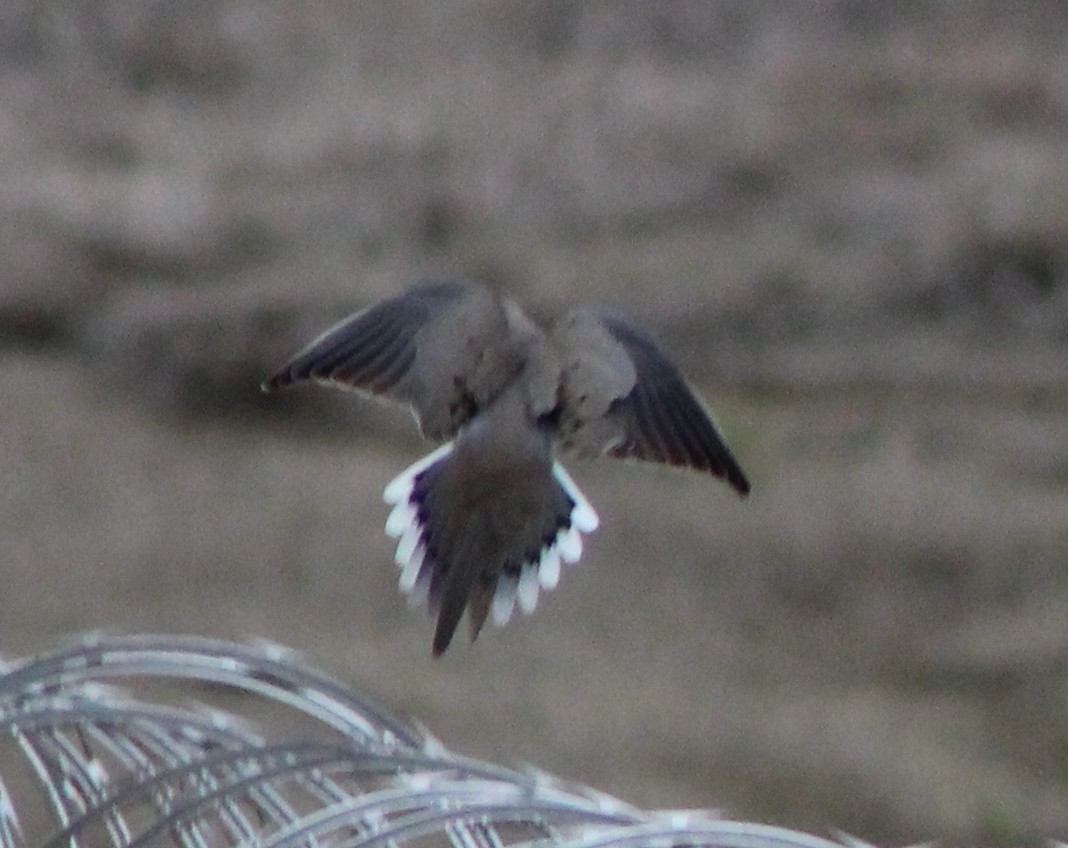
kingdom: Animalia
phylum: Chordata
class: Aves
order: Columbiformes
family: Columbidae
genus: Zenaida
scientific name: Zenaida macroura
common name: Mourning dove
